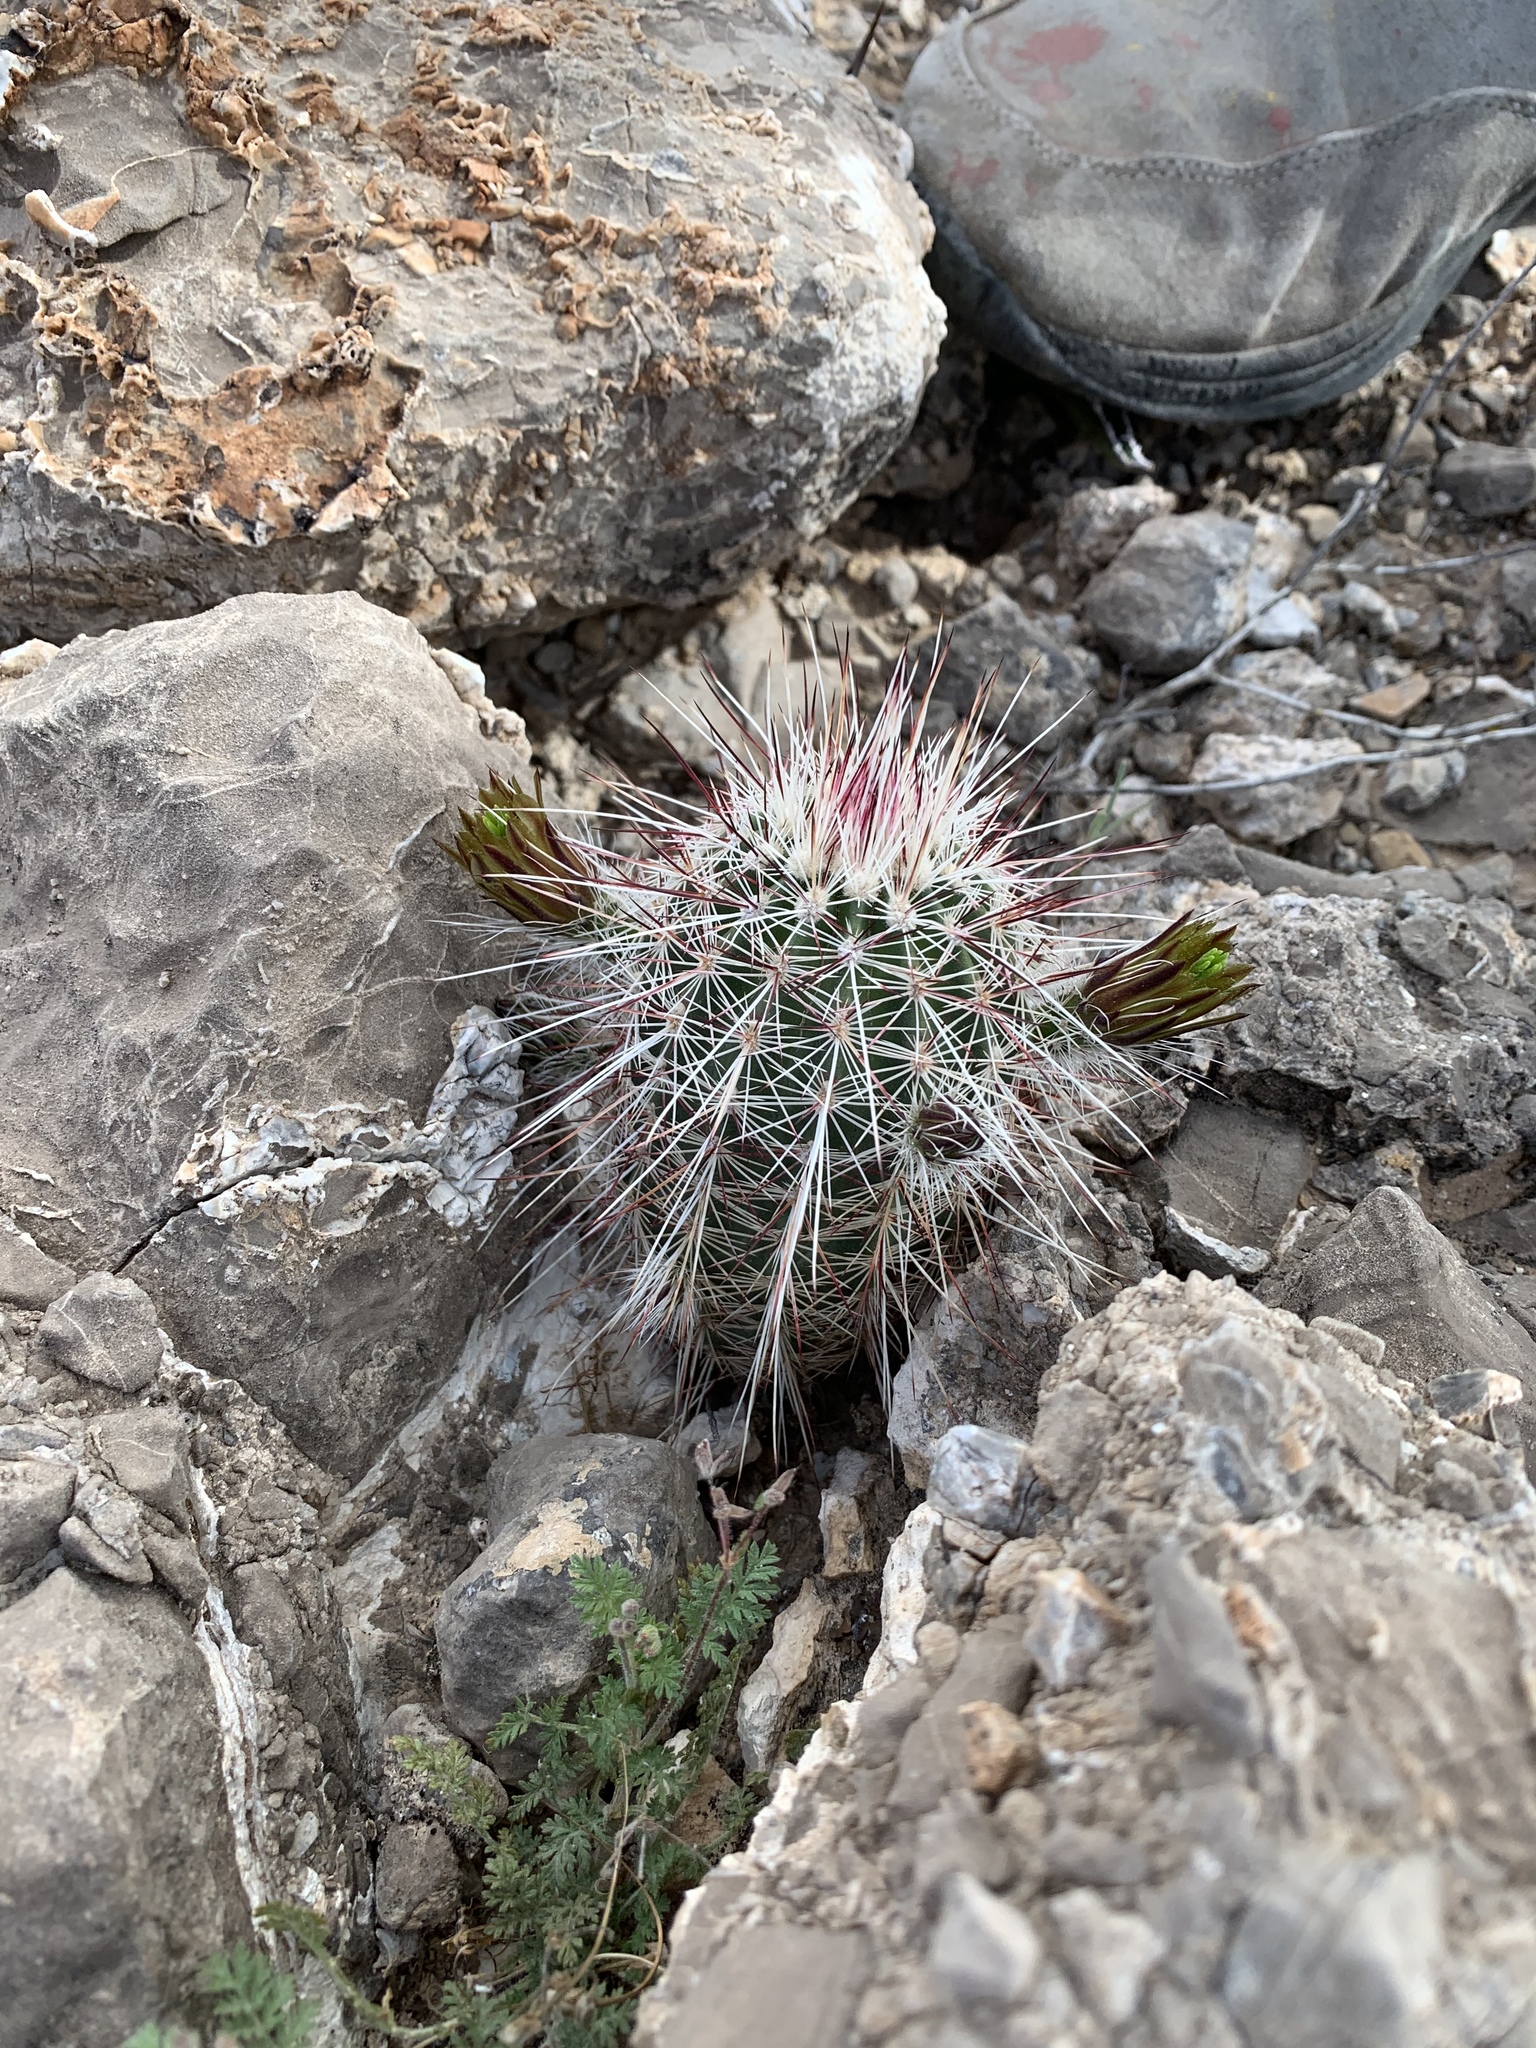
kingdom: Plantae
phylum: Tracheophyta
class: Magnoliopsida
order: Caryophyllales
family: Cactaceae
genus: Echinocereus
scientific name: Echinocereus viridiflorus
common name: Nylon hedgehog cactus
